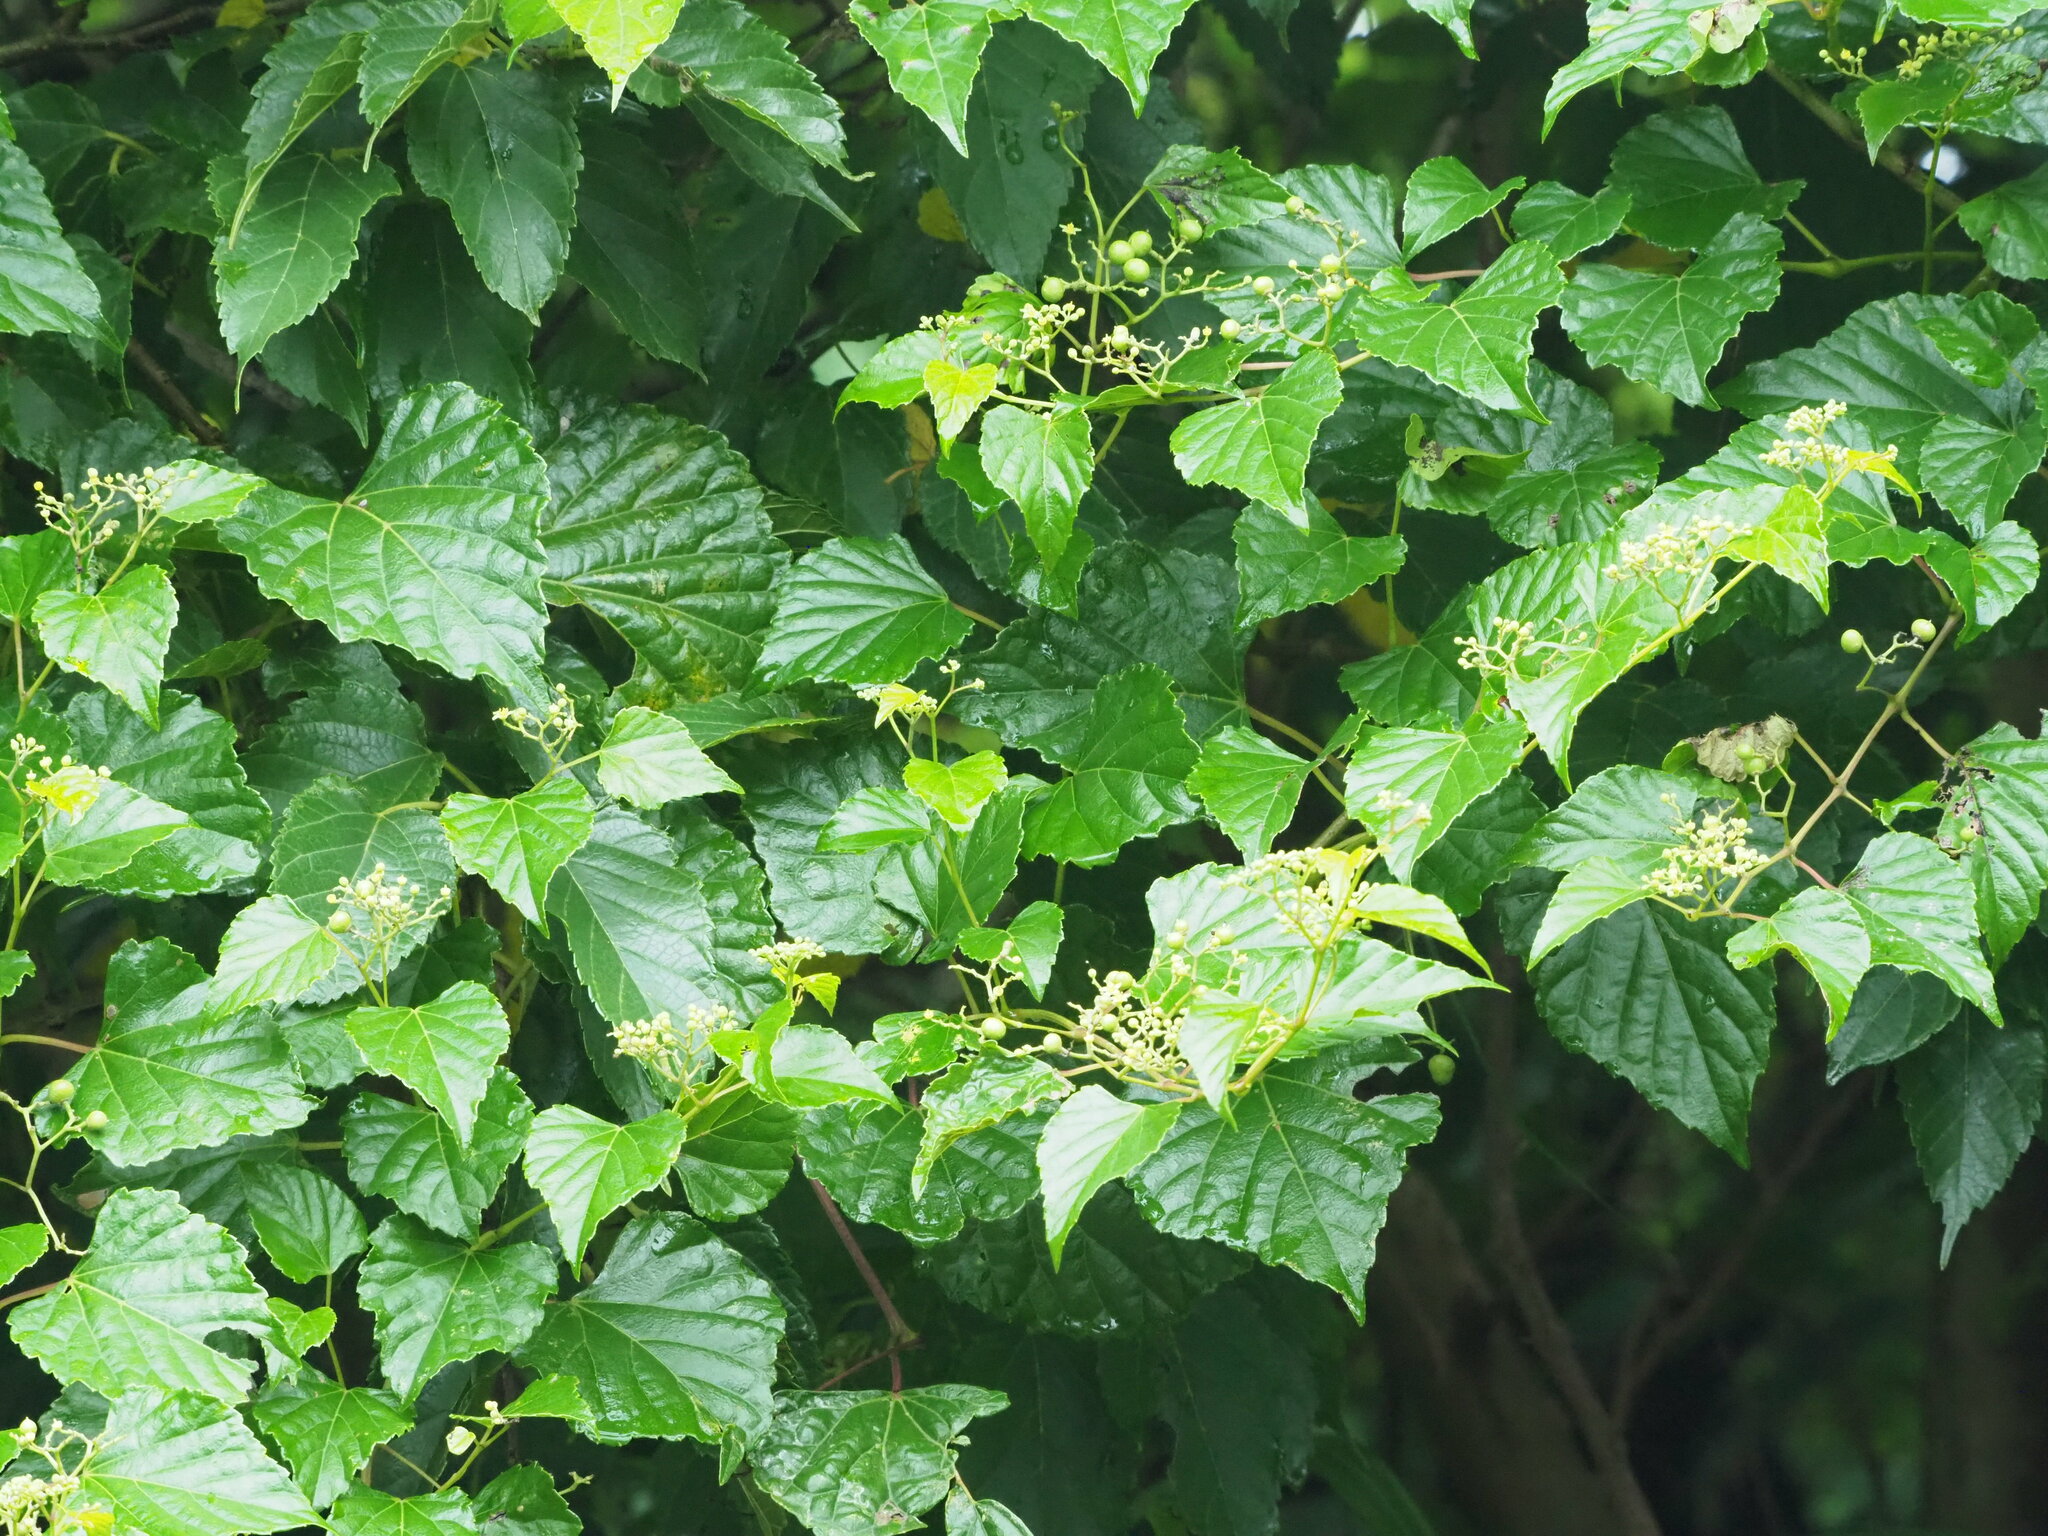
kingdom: Plantae
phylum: Tracheophyta
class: Magnoliopsida
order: Vitales
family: Vitaceae
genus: Ampelopsis
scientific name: Ampelopsis glandulosa
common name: Amur peppervine
